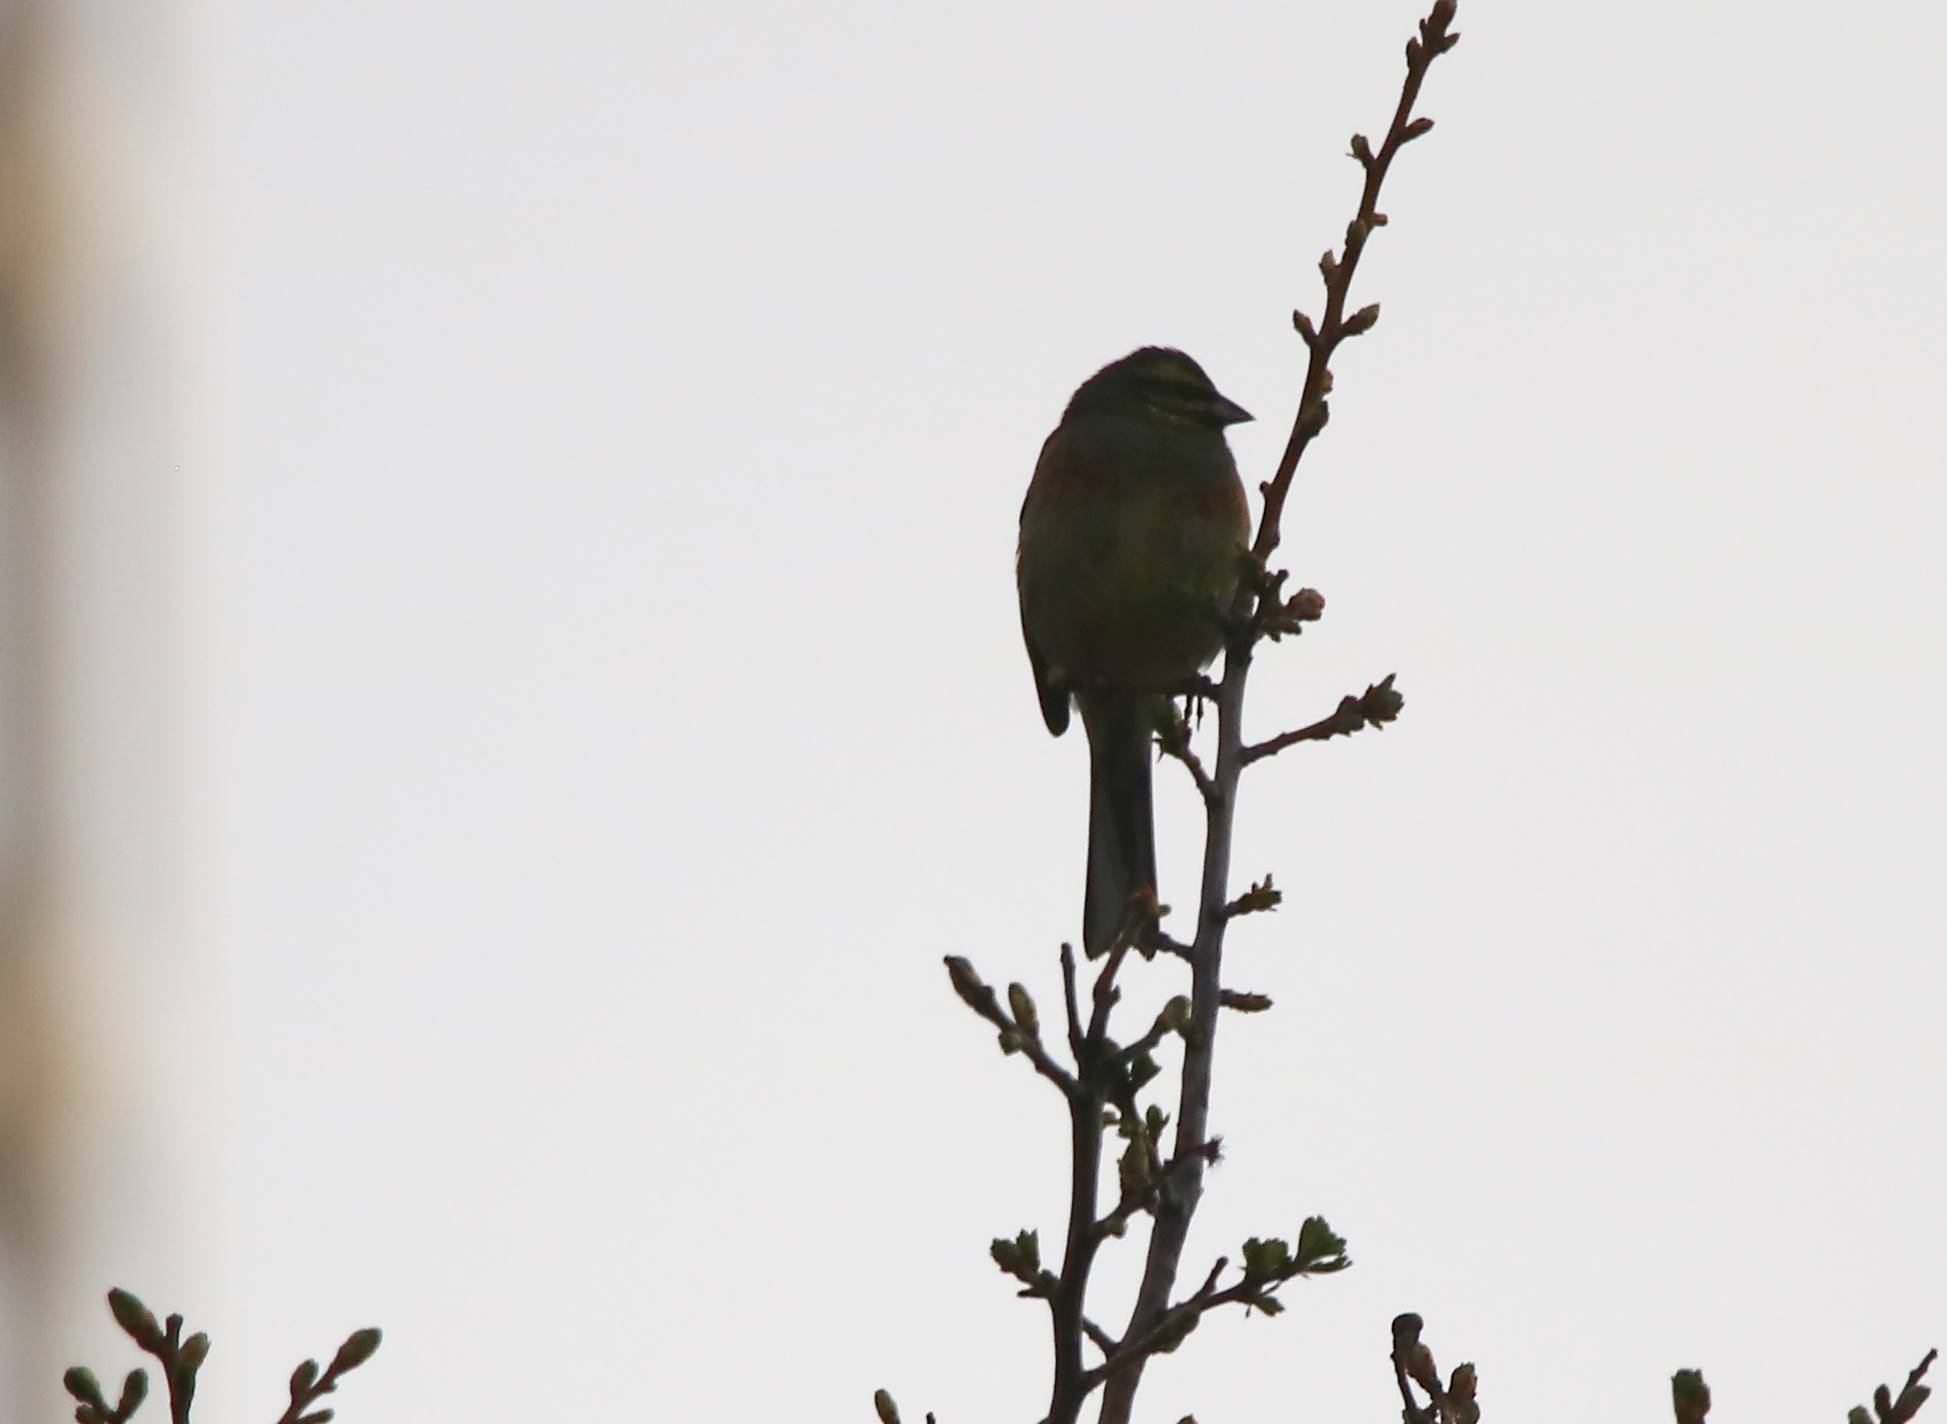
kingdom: Animalia
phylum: Chordata
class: Aves
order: Passeriformes
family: Emberizidae
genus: Emberiza
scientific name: Emberiza cirlus
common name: Cirl bunting
